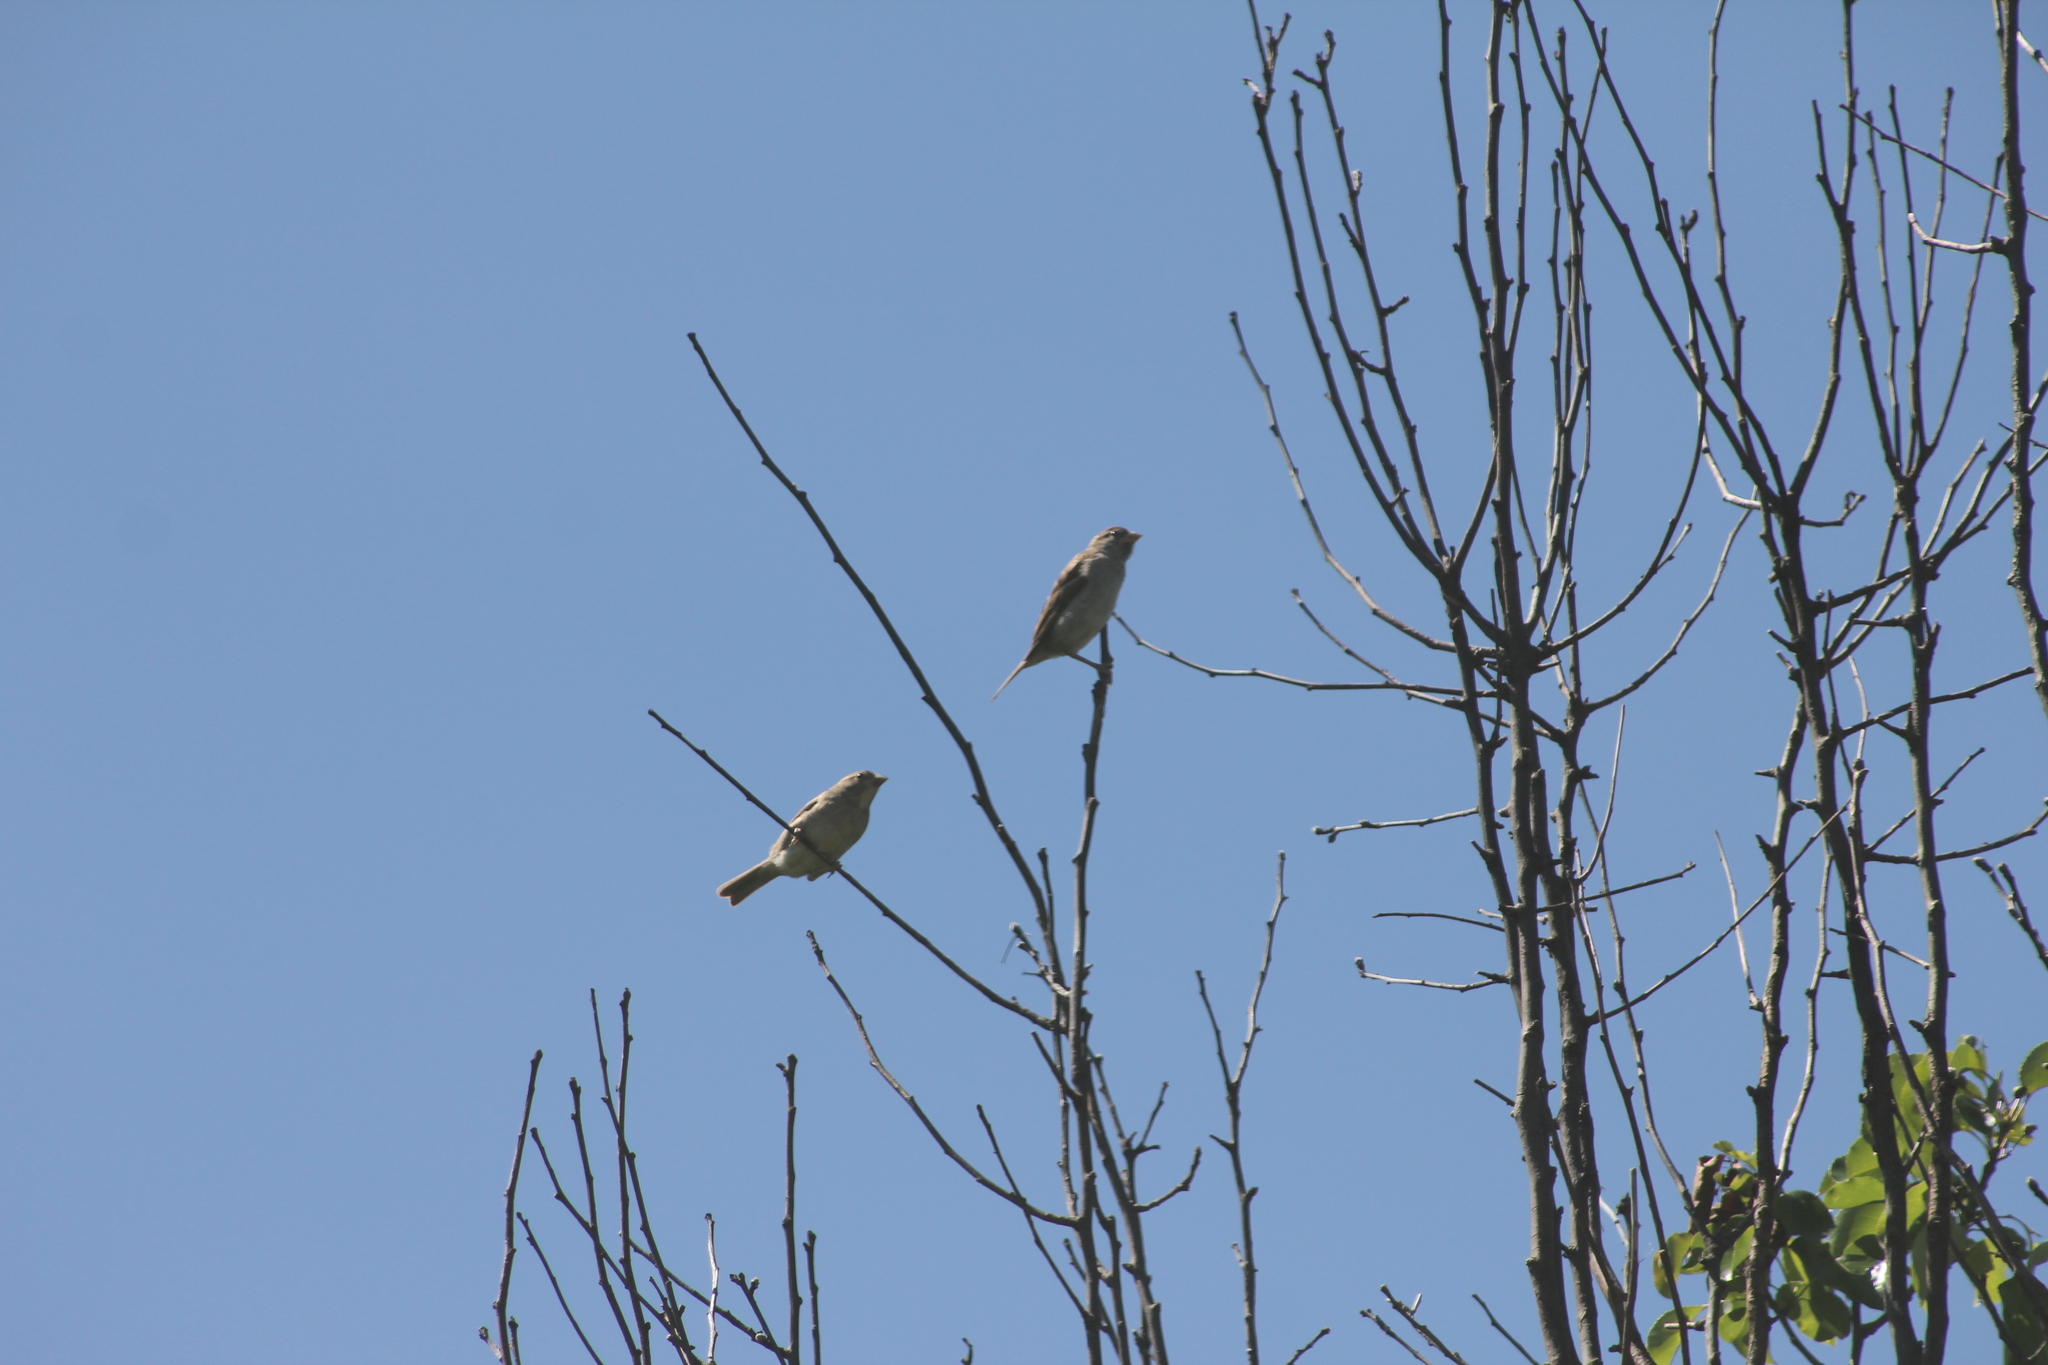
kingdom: Animalia
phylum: Chordata
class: Aves
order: Passeriformes
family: Passeridae
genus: Passer
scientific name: Passer domesticus
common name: House sparrow
